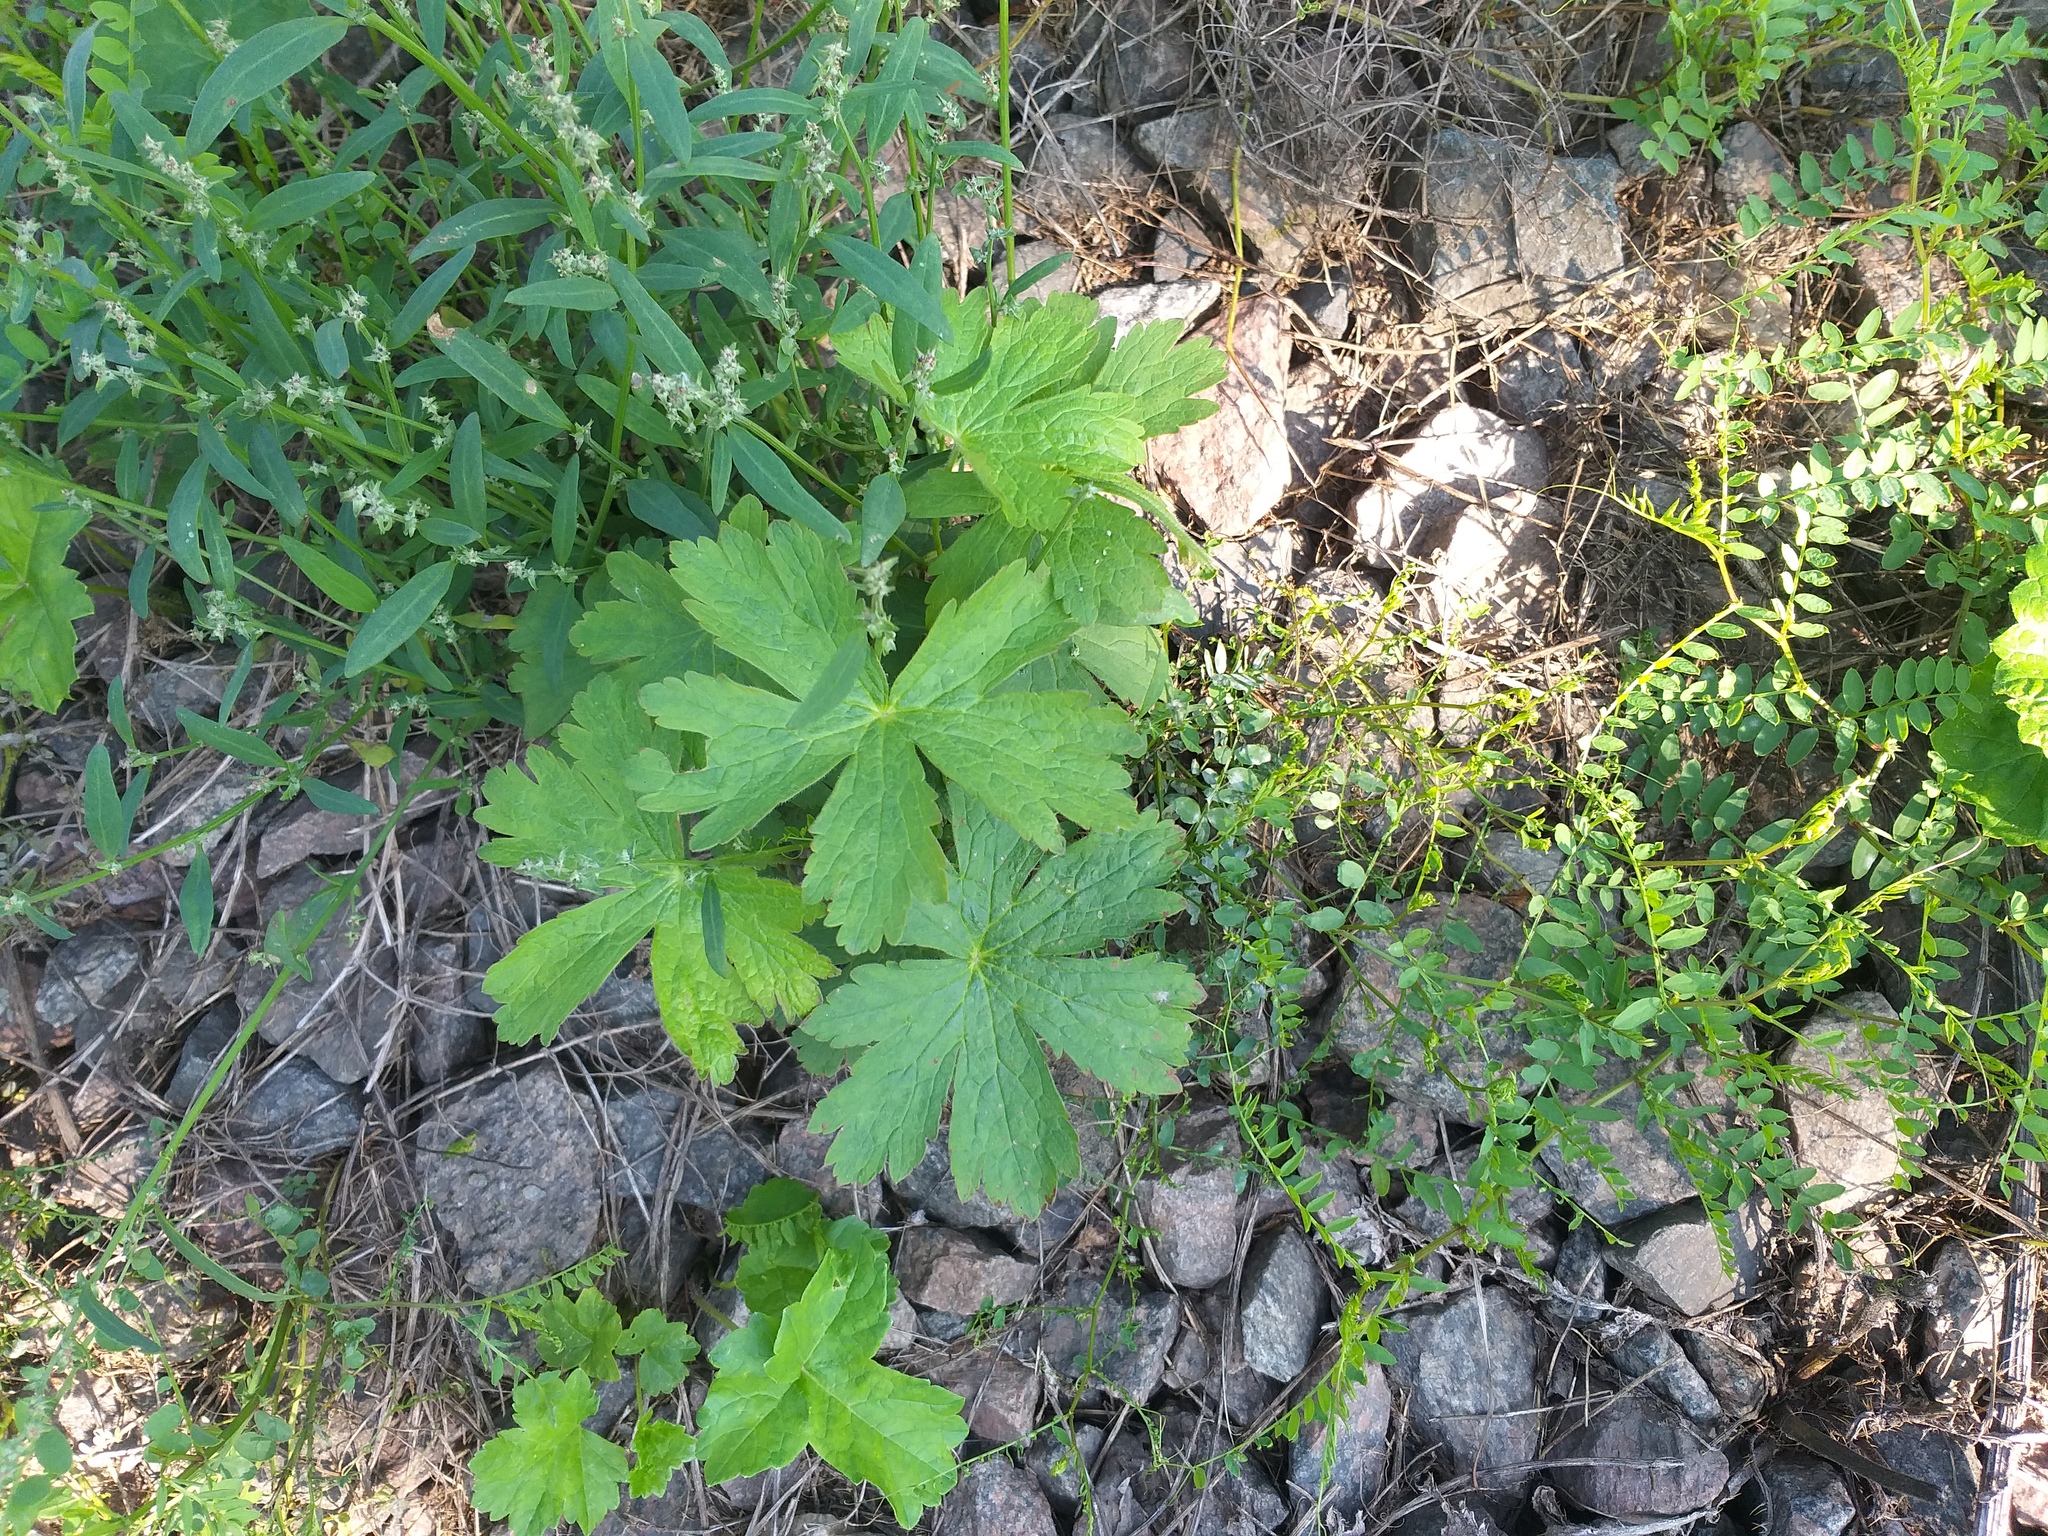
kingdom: Plantae
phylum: Tracheophyta
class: Magnoliopsida
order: Geraniales
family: Geraniaceae
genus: Geranium
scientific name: Geranium sylvaticum
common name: Wood crane's-bill
